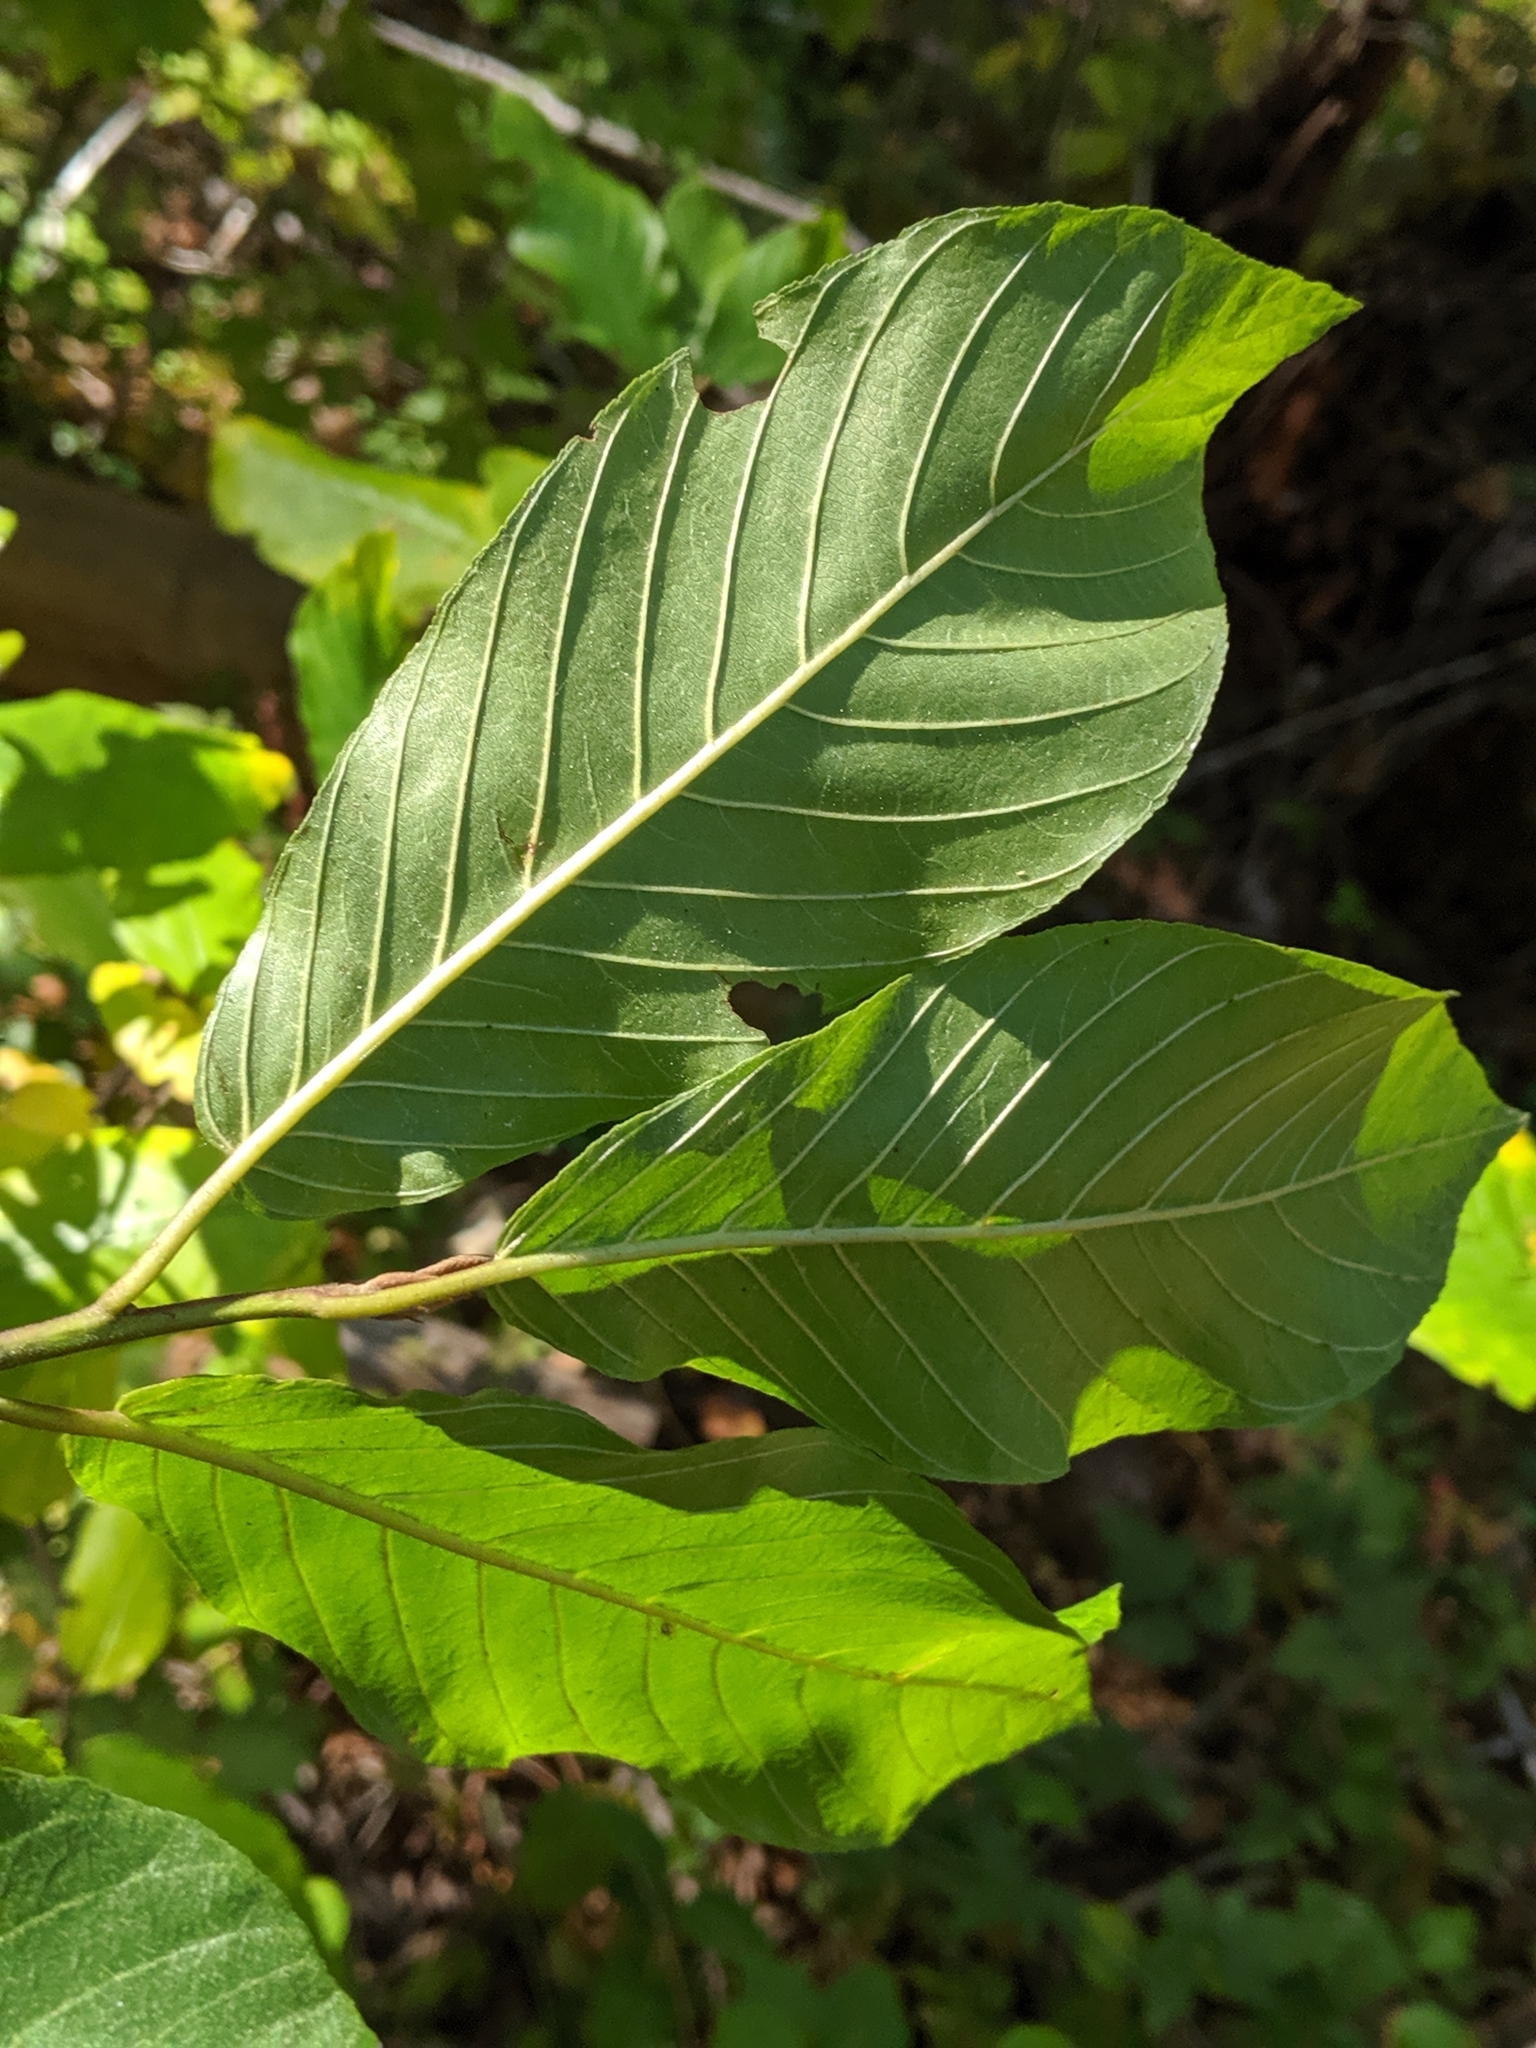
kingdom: Plantae
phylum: Tracheophyta
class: Magnoliopsida
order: Rosales
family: Rhamnaceae
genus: Frangula
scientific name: Frangula purshiana
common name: Cascara buckthorn
